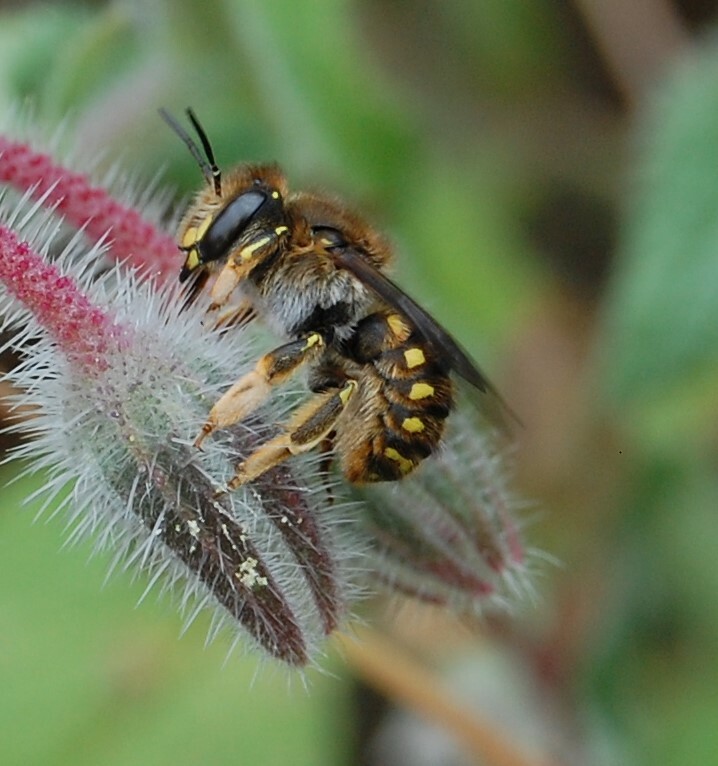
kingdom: Animalia
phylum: Arthropoda
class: Insecta
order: Hymenoptera
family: Megachilidae
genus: Anthidium
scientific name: Anthidium manicatum
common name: Wool carder bee
